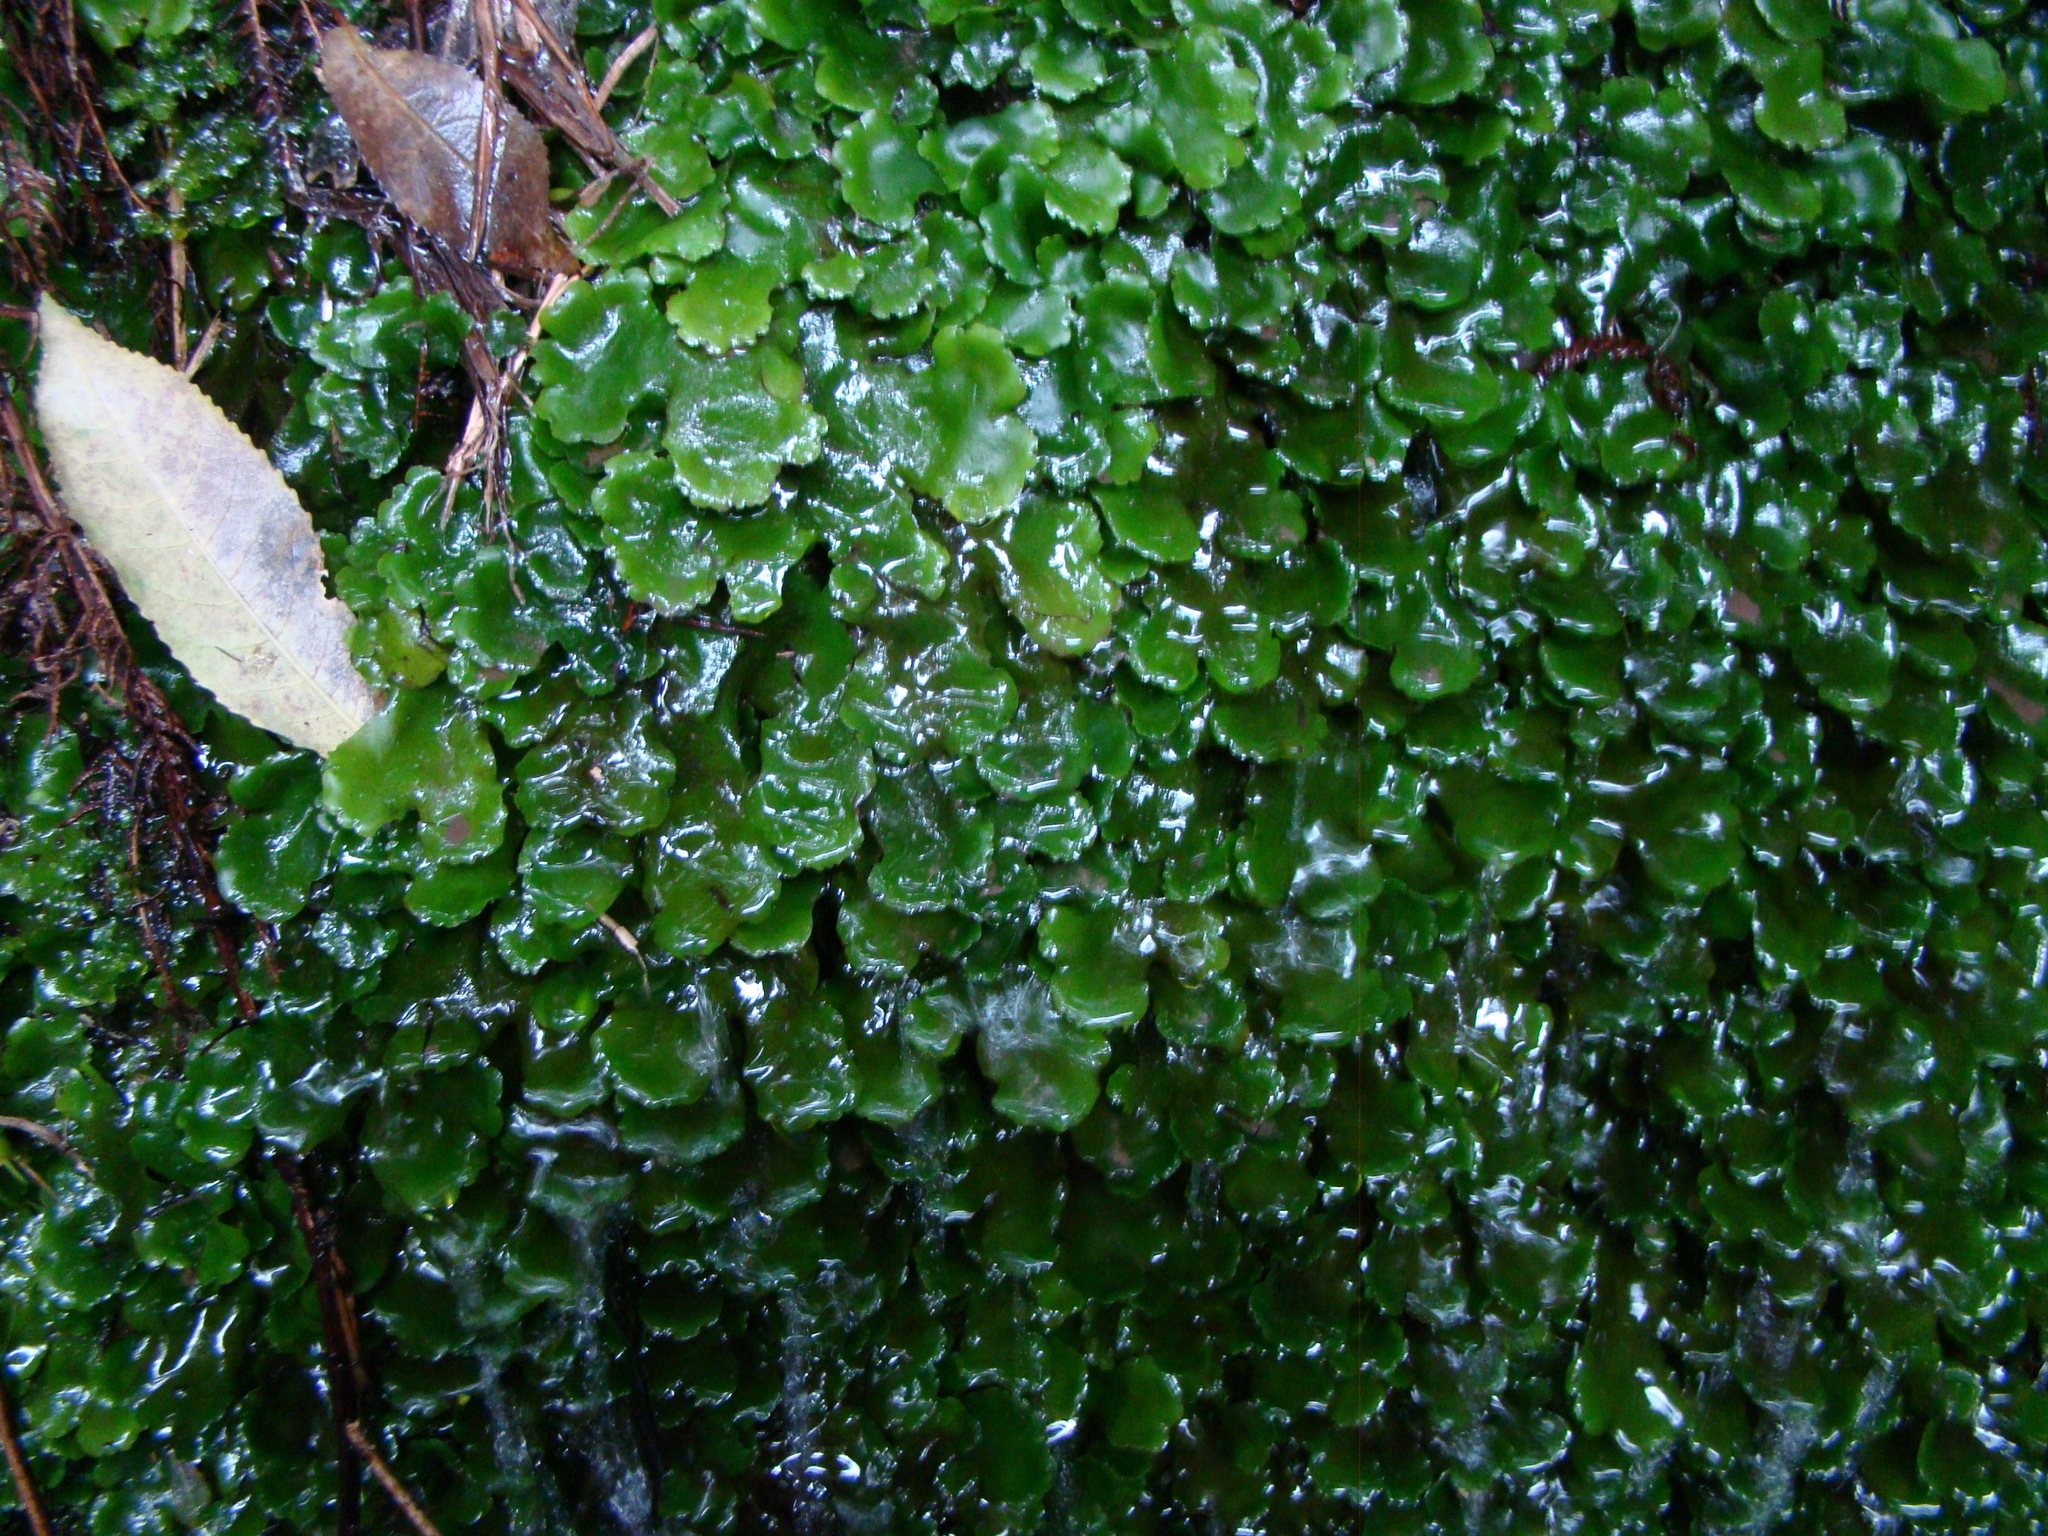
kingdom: Plantae
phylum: Marchantiophyta
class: Marchantiopsida
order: Marchantiales
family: Monocleaceae
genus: Monoclea
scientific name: Monoclea forsteri
